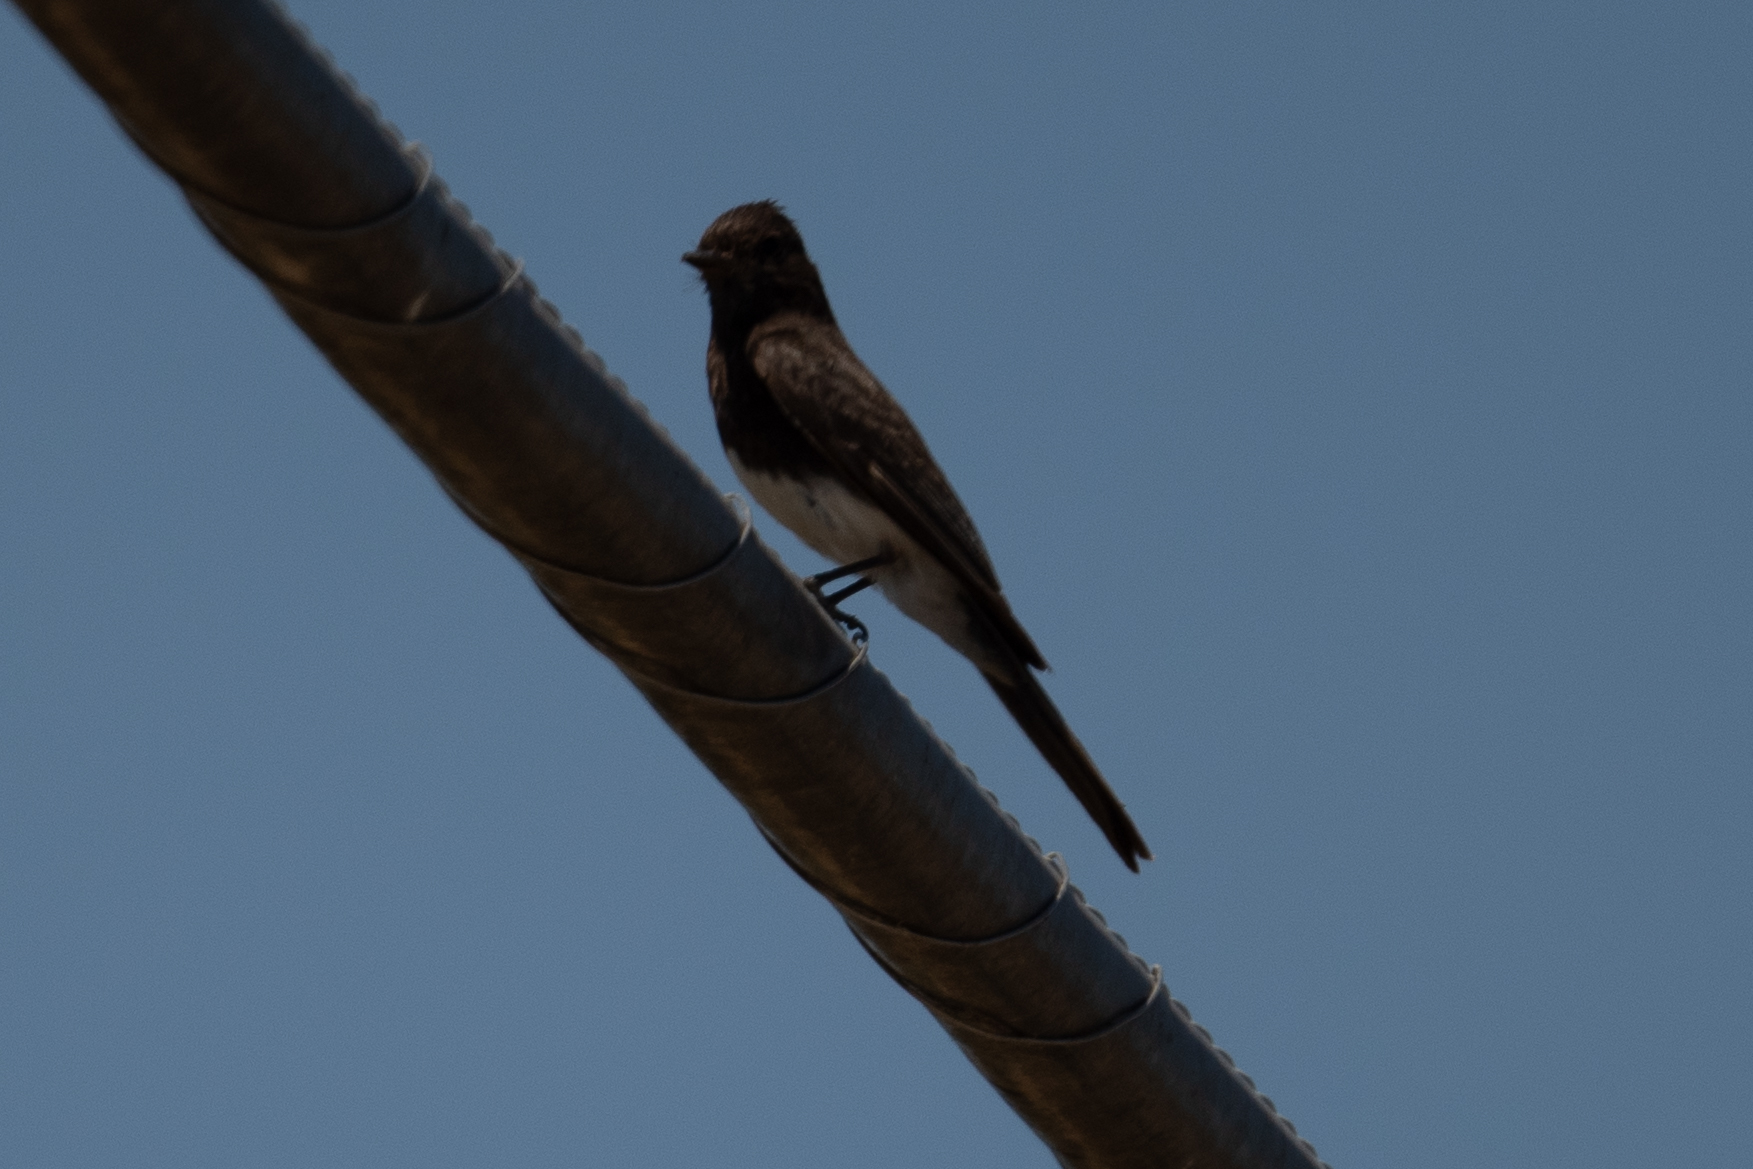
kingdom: Animalia
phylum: Chordata
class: Aves
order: Passeriformes
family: Tyrannidae
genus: Sayornis
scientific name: Sayornis nigricans
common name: Black phoebe
